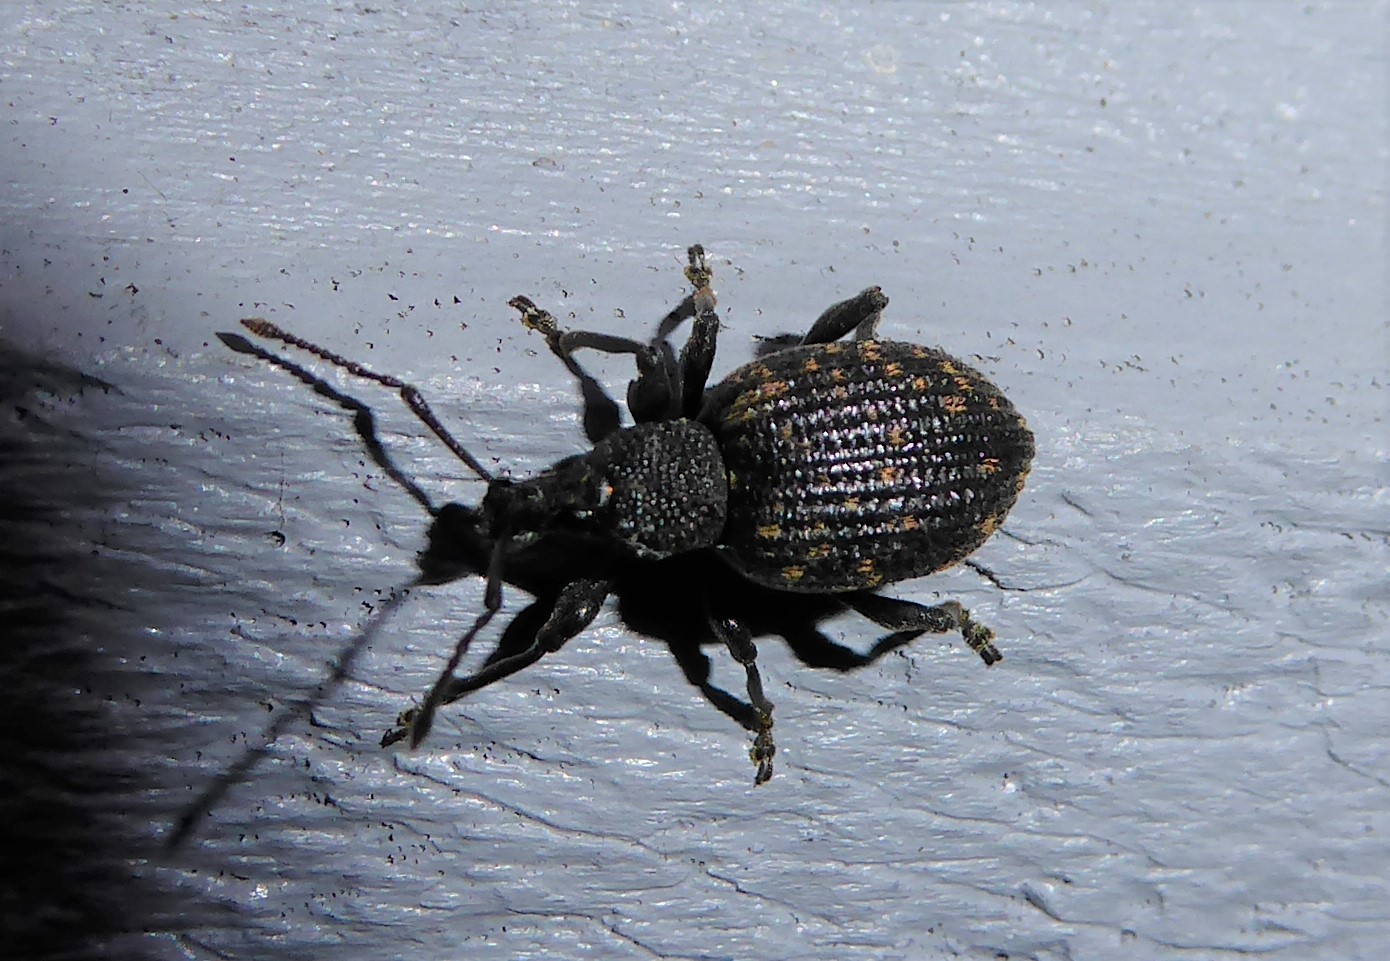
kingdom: Animalia
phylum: Arthropoda
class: Insecta
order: Coleoptera
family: Curculionidae
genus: Otiorhynchus
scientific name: Otiorhynchus sulcatus
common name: Black vine weevil
